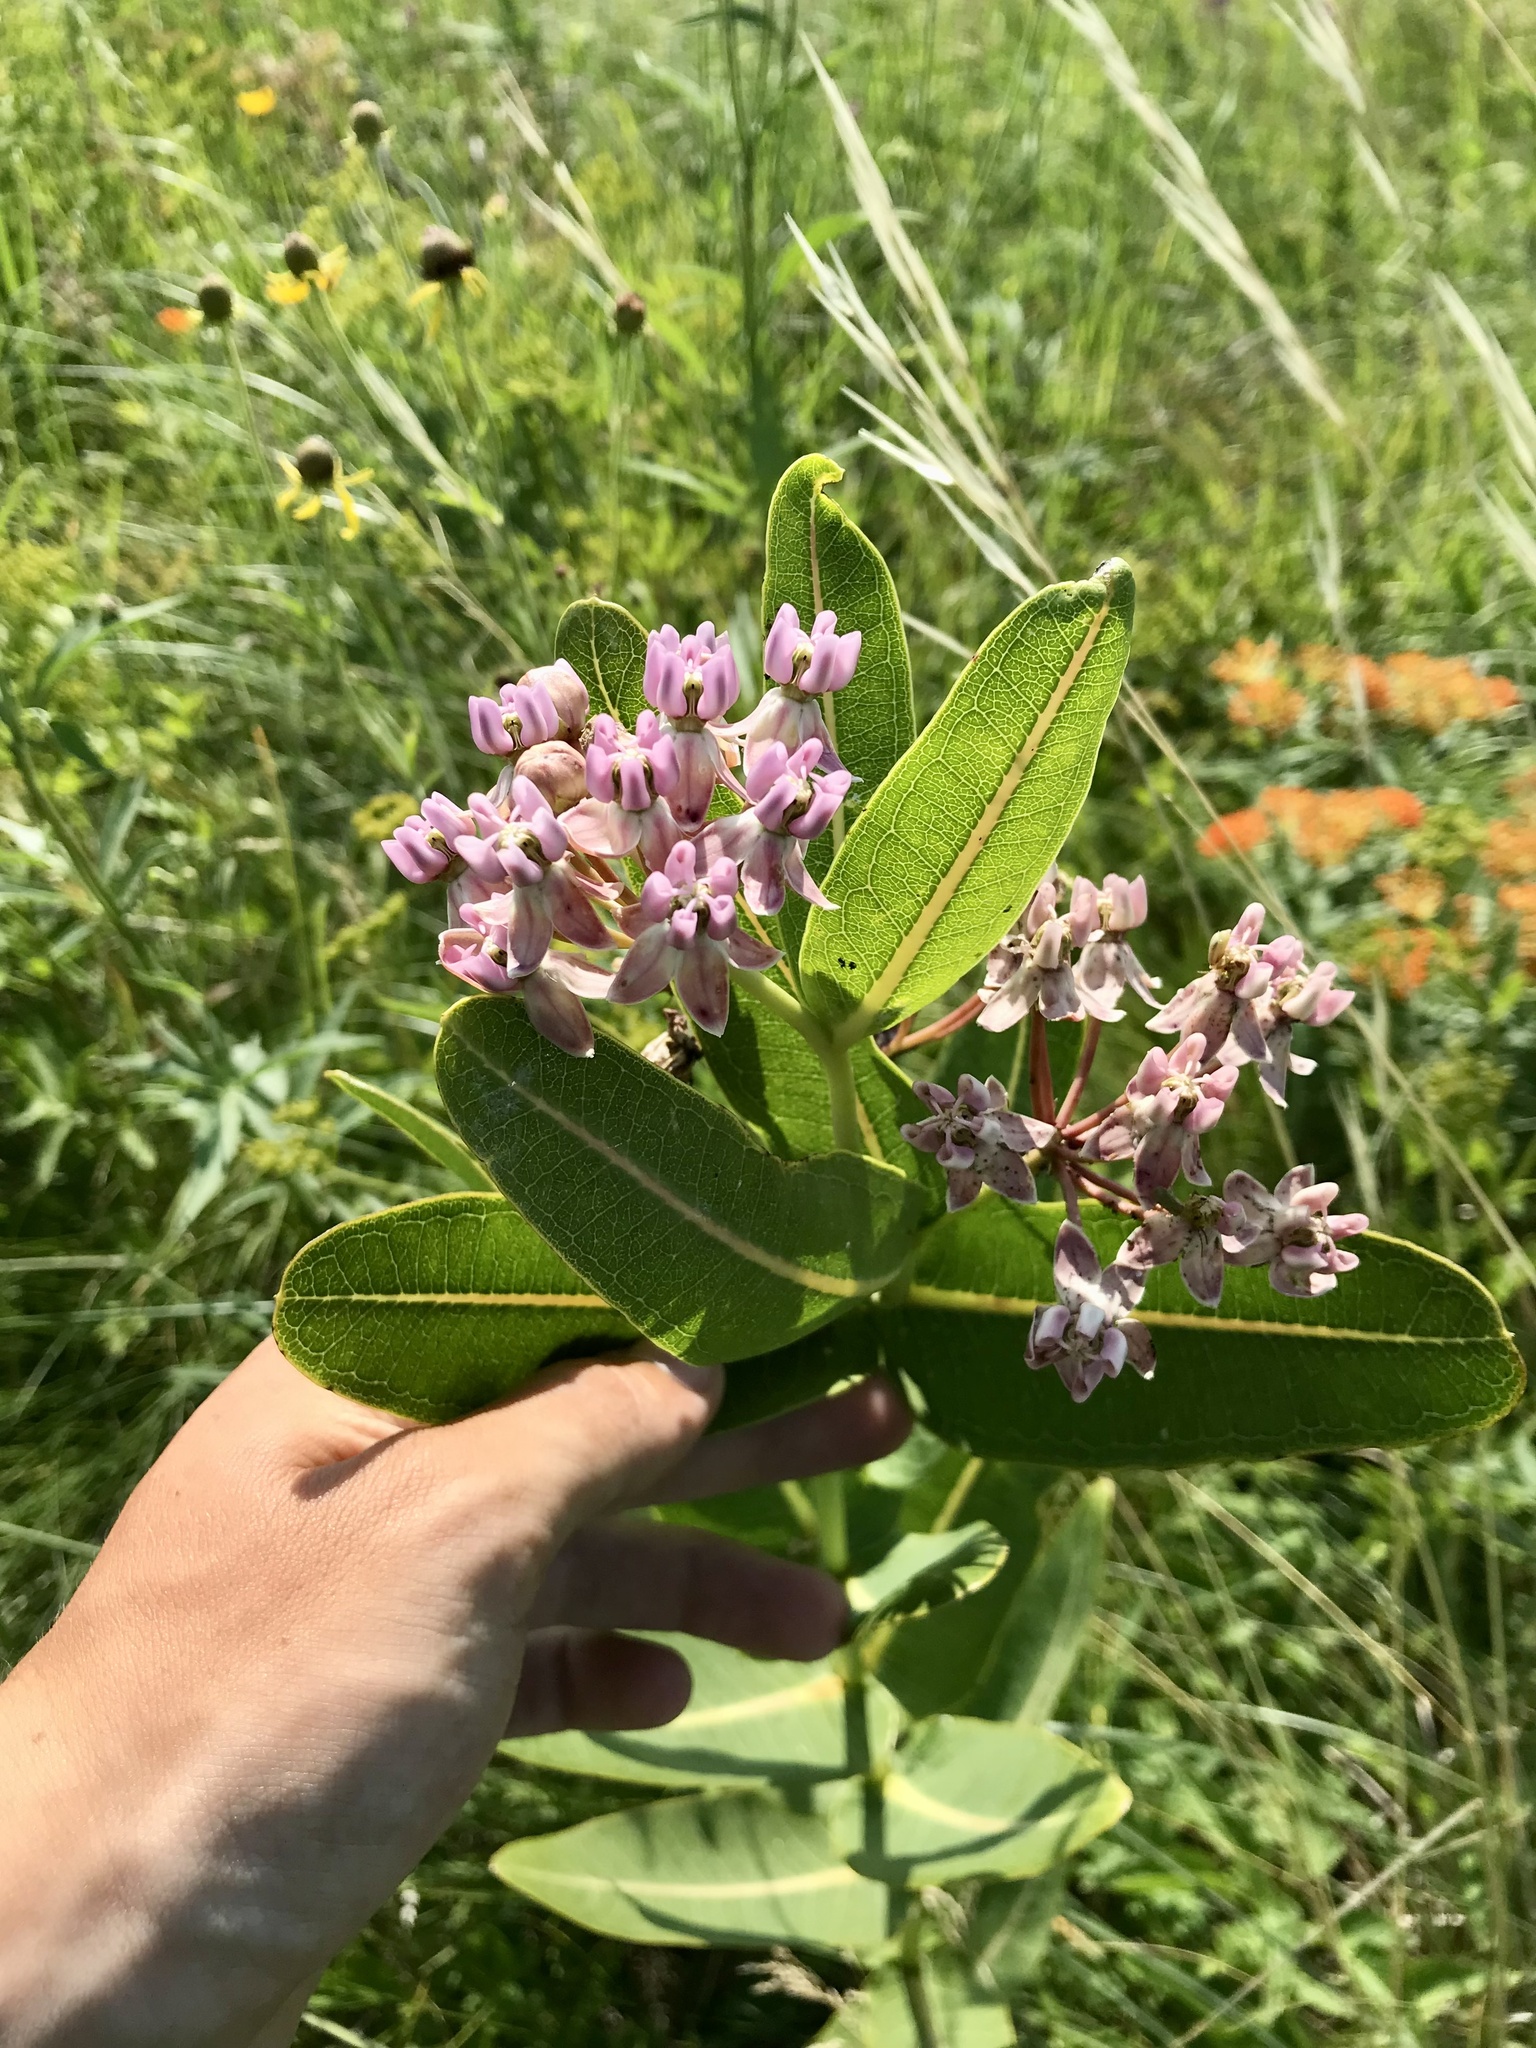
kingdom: Plantae
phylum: Tracheophyta
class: Magnoliopsida
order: Gentianales
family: Apocynaceae
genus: Asclepias
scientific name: Asclepias sullivantii
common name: Prairie milkweed
